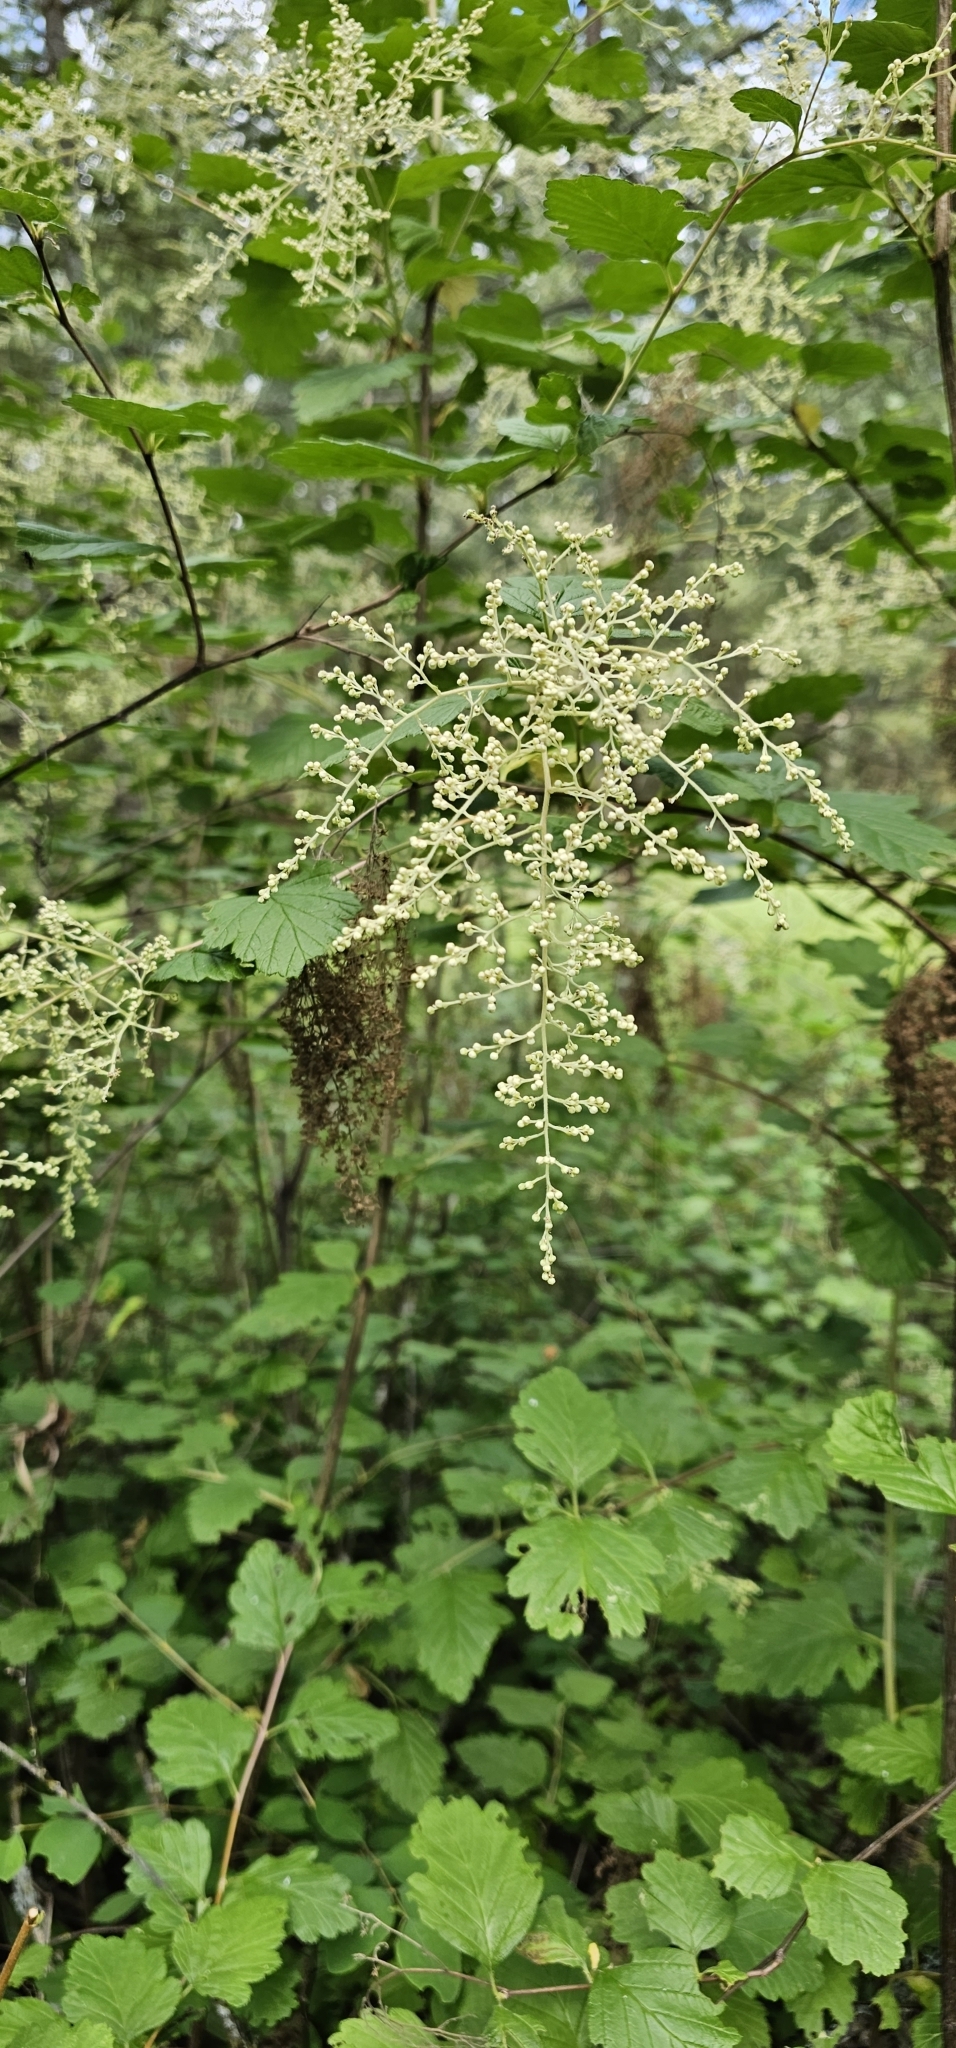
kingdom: Plantae
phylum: Tracheophyta
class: Magnoliopsida
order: Rosales
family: Rosaceae
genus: Holodiscus
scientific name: Holodiscus discolor
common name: Oceanspray
